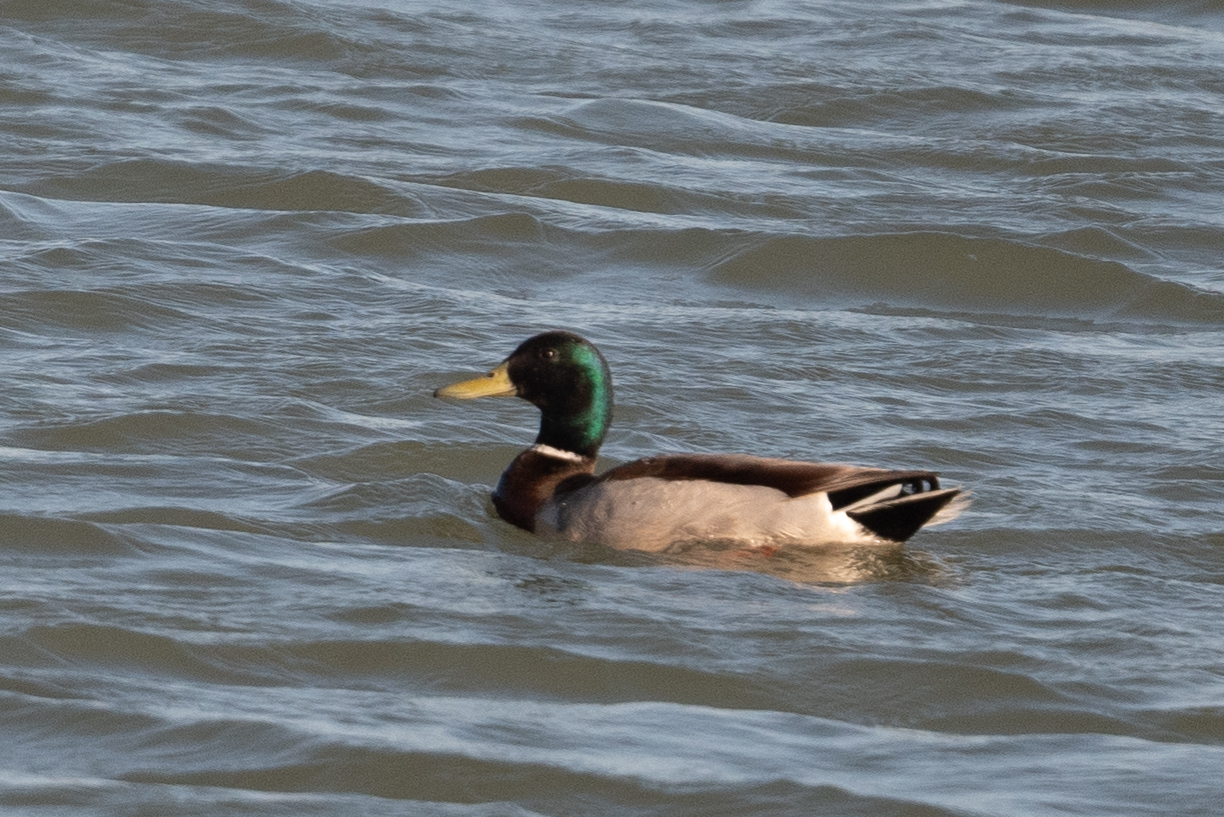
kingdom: Animalia
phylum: Chordata
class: Aves
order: Anseriformes
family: Anatidae
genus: Anas
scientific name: Anas platyrhynchos
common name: Mallard
